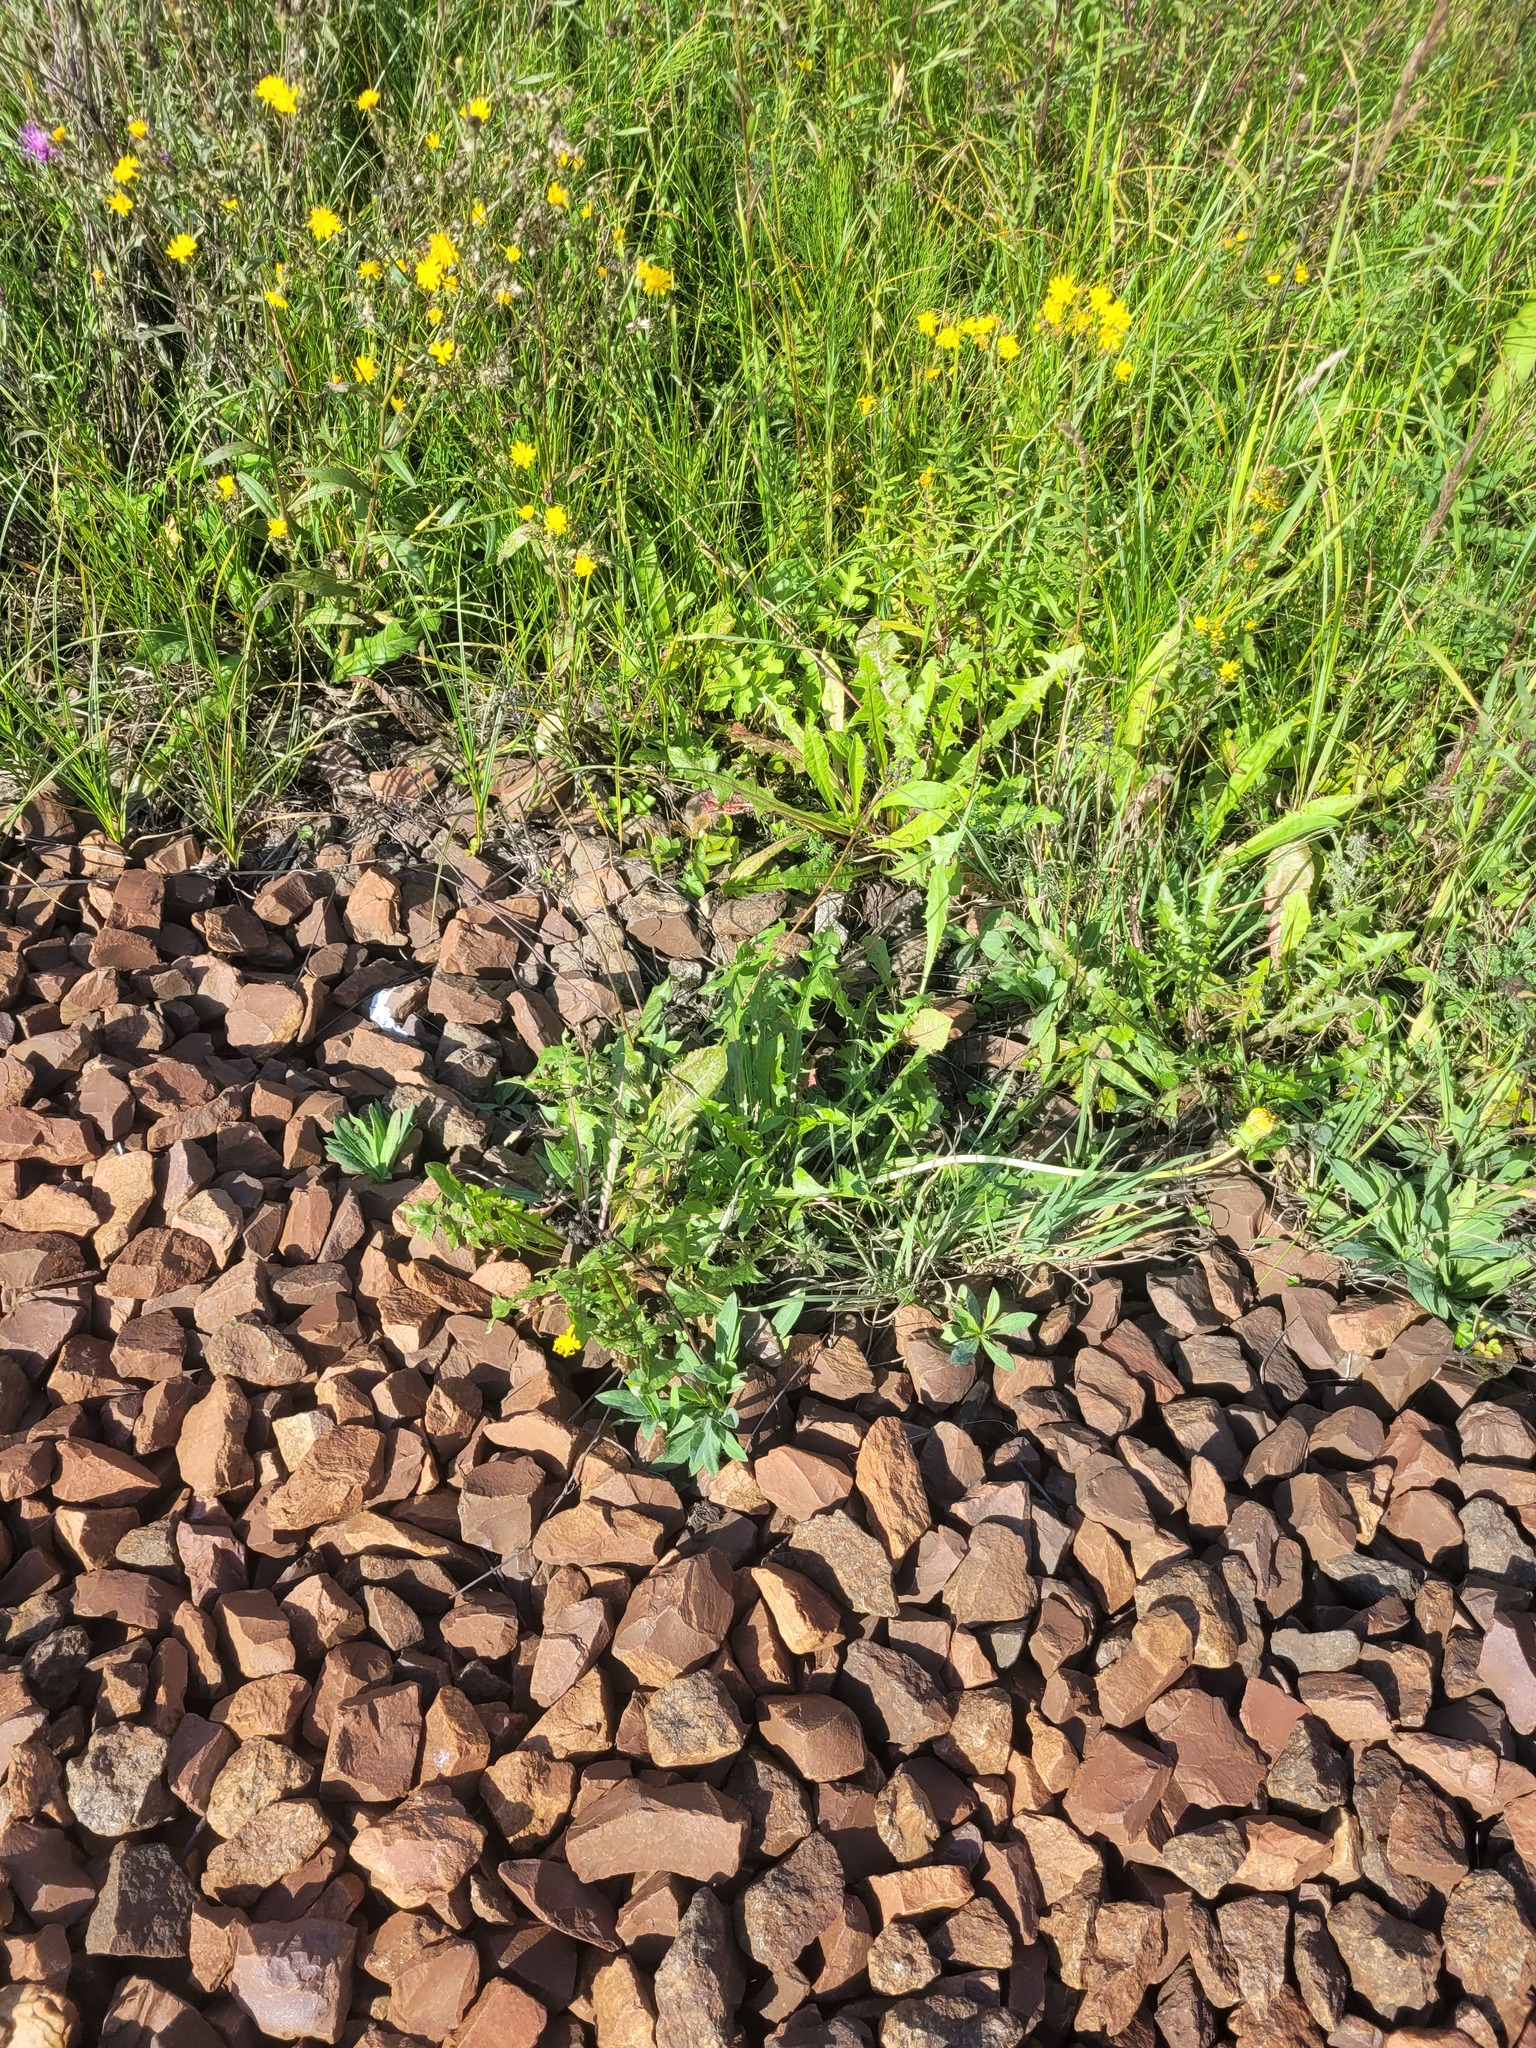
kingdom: Plantae
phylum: Tracheophyta
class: Magnoliopsida
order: Asterales
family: Asteraceae
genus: Taraxacum
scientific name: Taraxacum officinale
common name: Common dandelion
